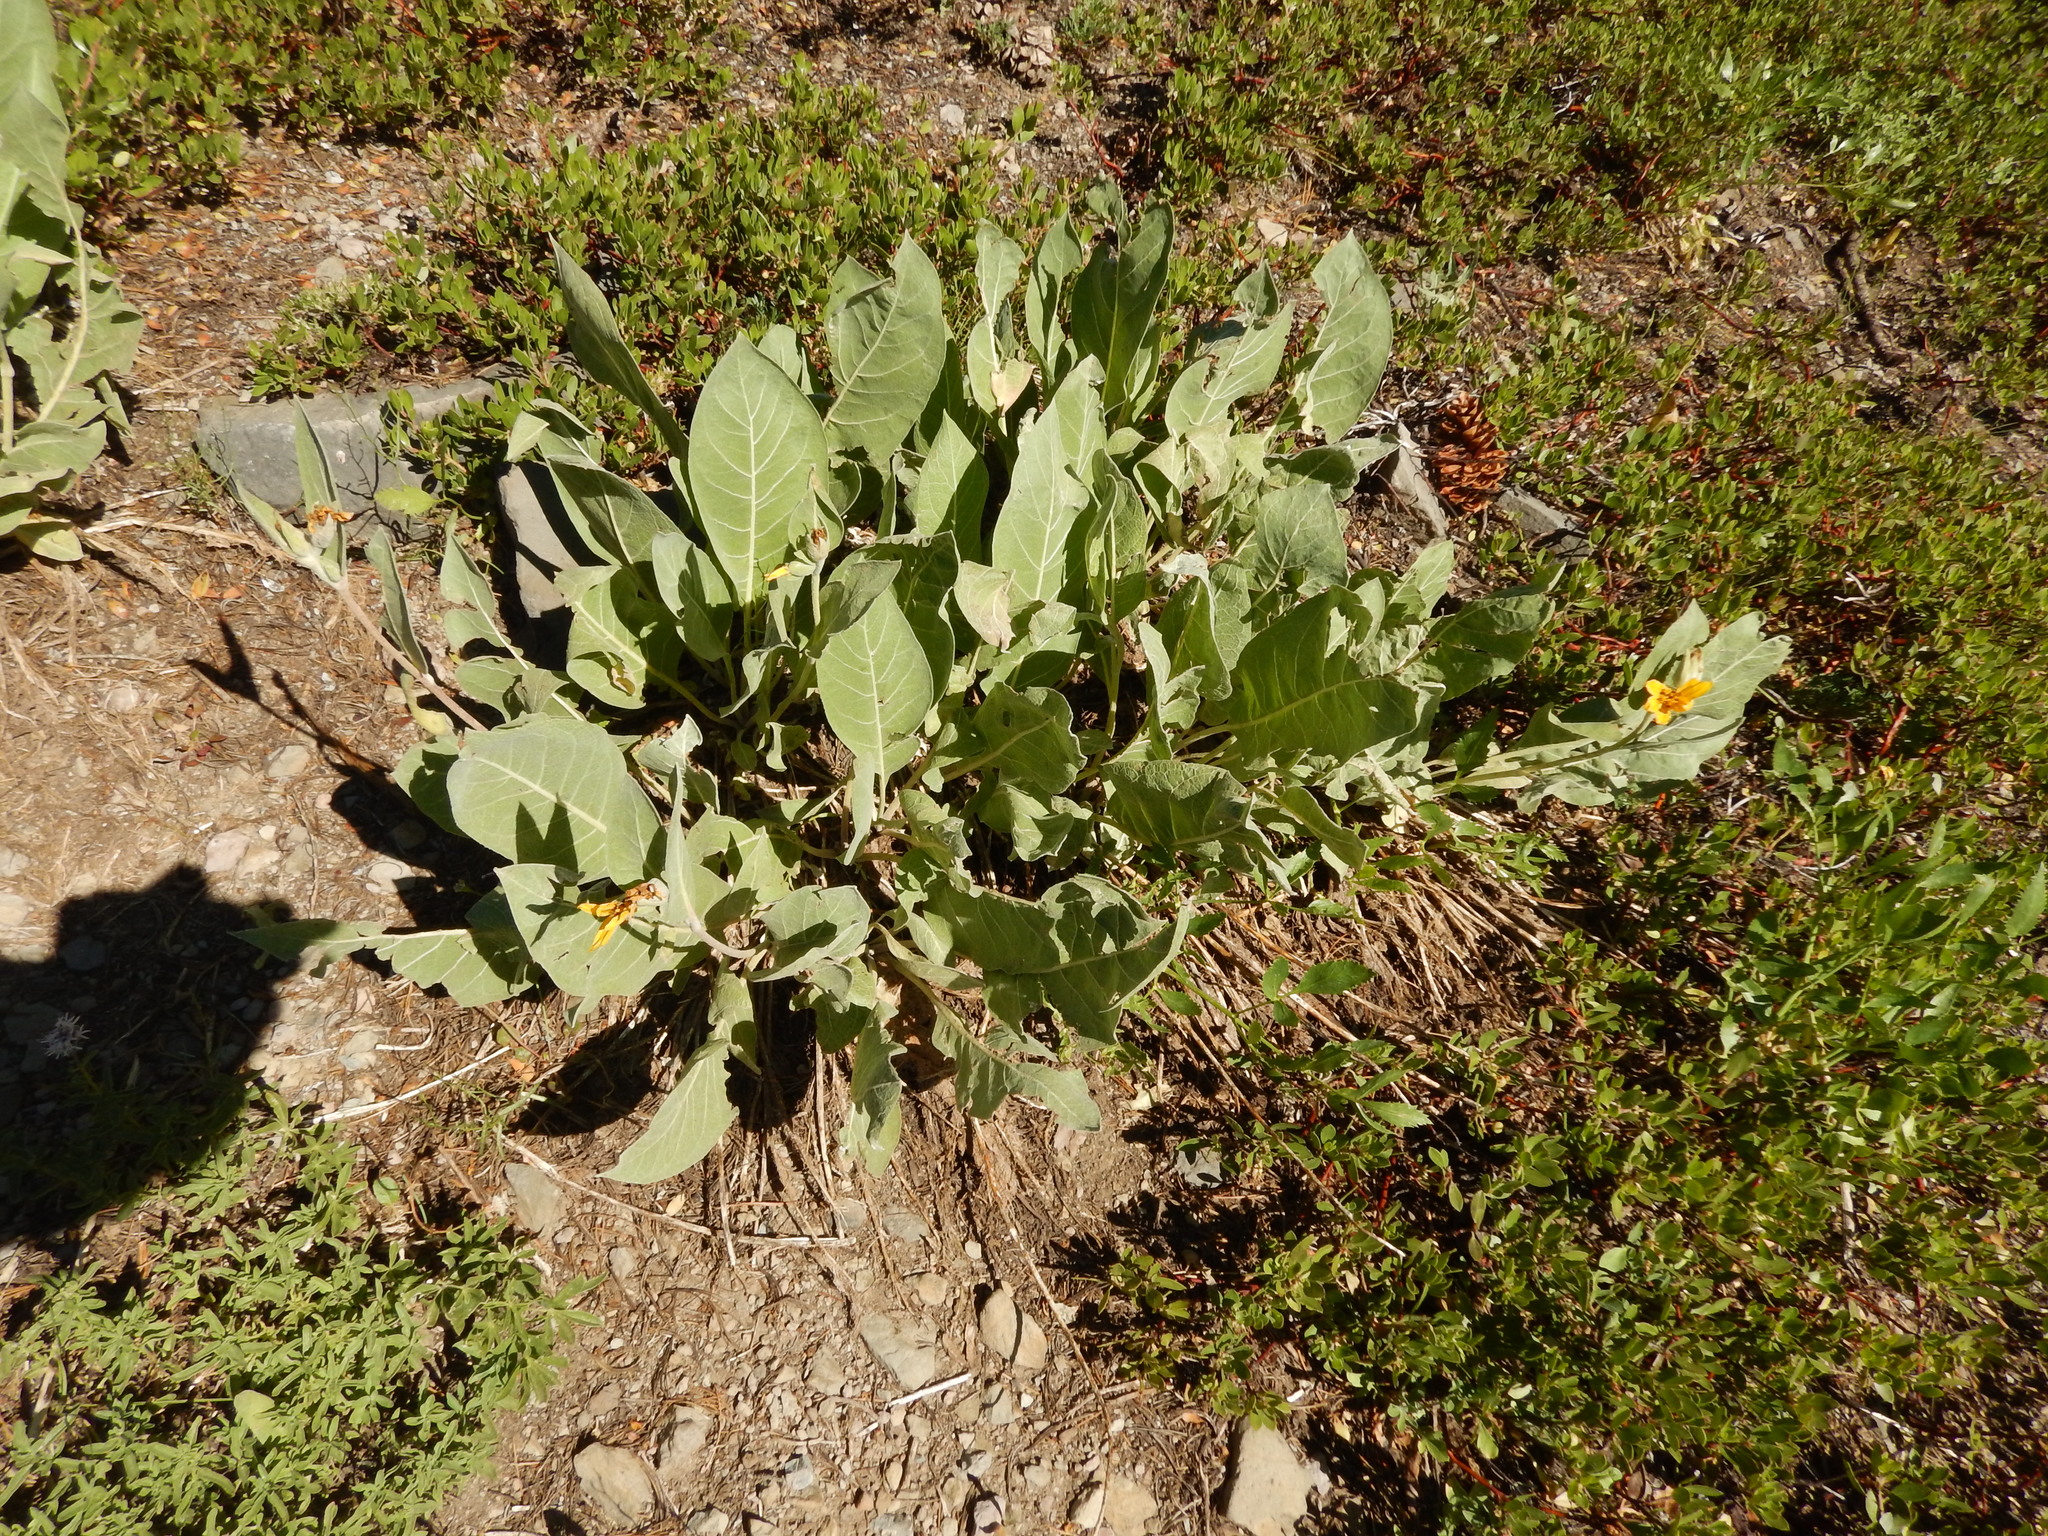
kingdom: Plantae
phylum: Tracheophyta
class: Magnoliopsida
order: Asterales
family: Asteraceae
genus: Wyethia
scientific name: Wyethia mollis
